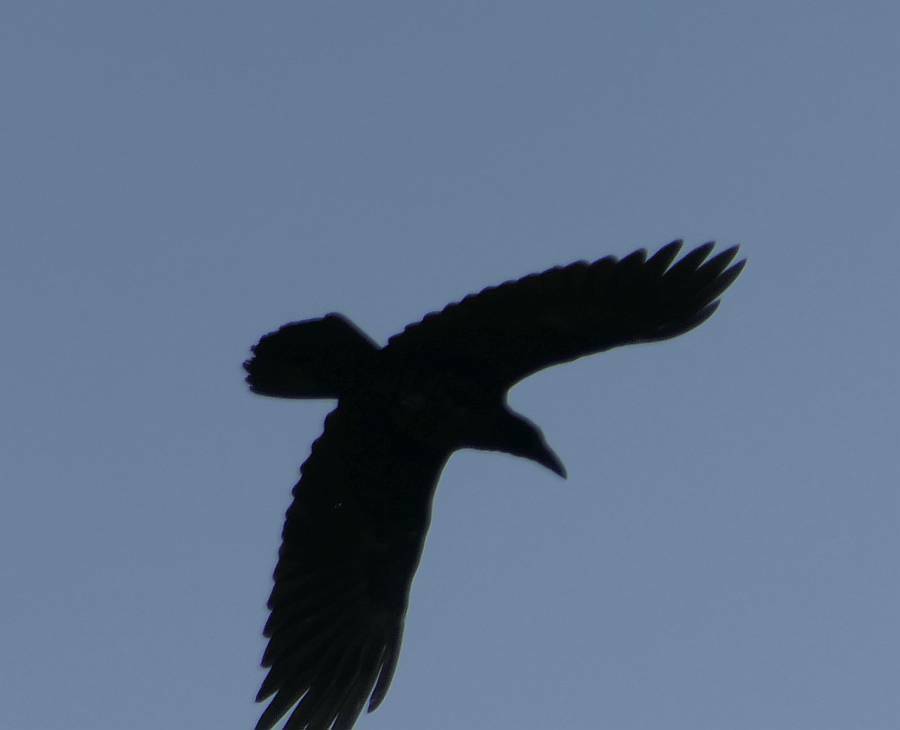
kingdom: Animalia
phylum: Chordata
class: Aves
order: Passeriformes
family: Corvidae
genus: Corvus
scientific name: Corvus corax
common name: Common raven
